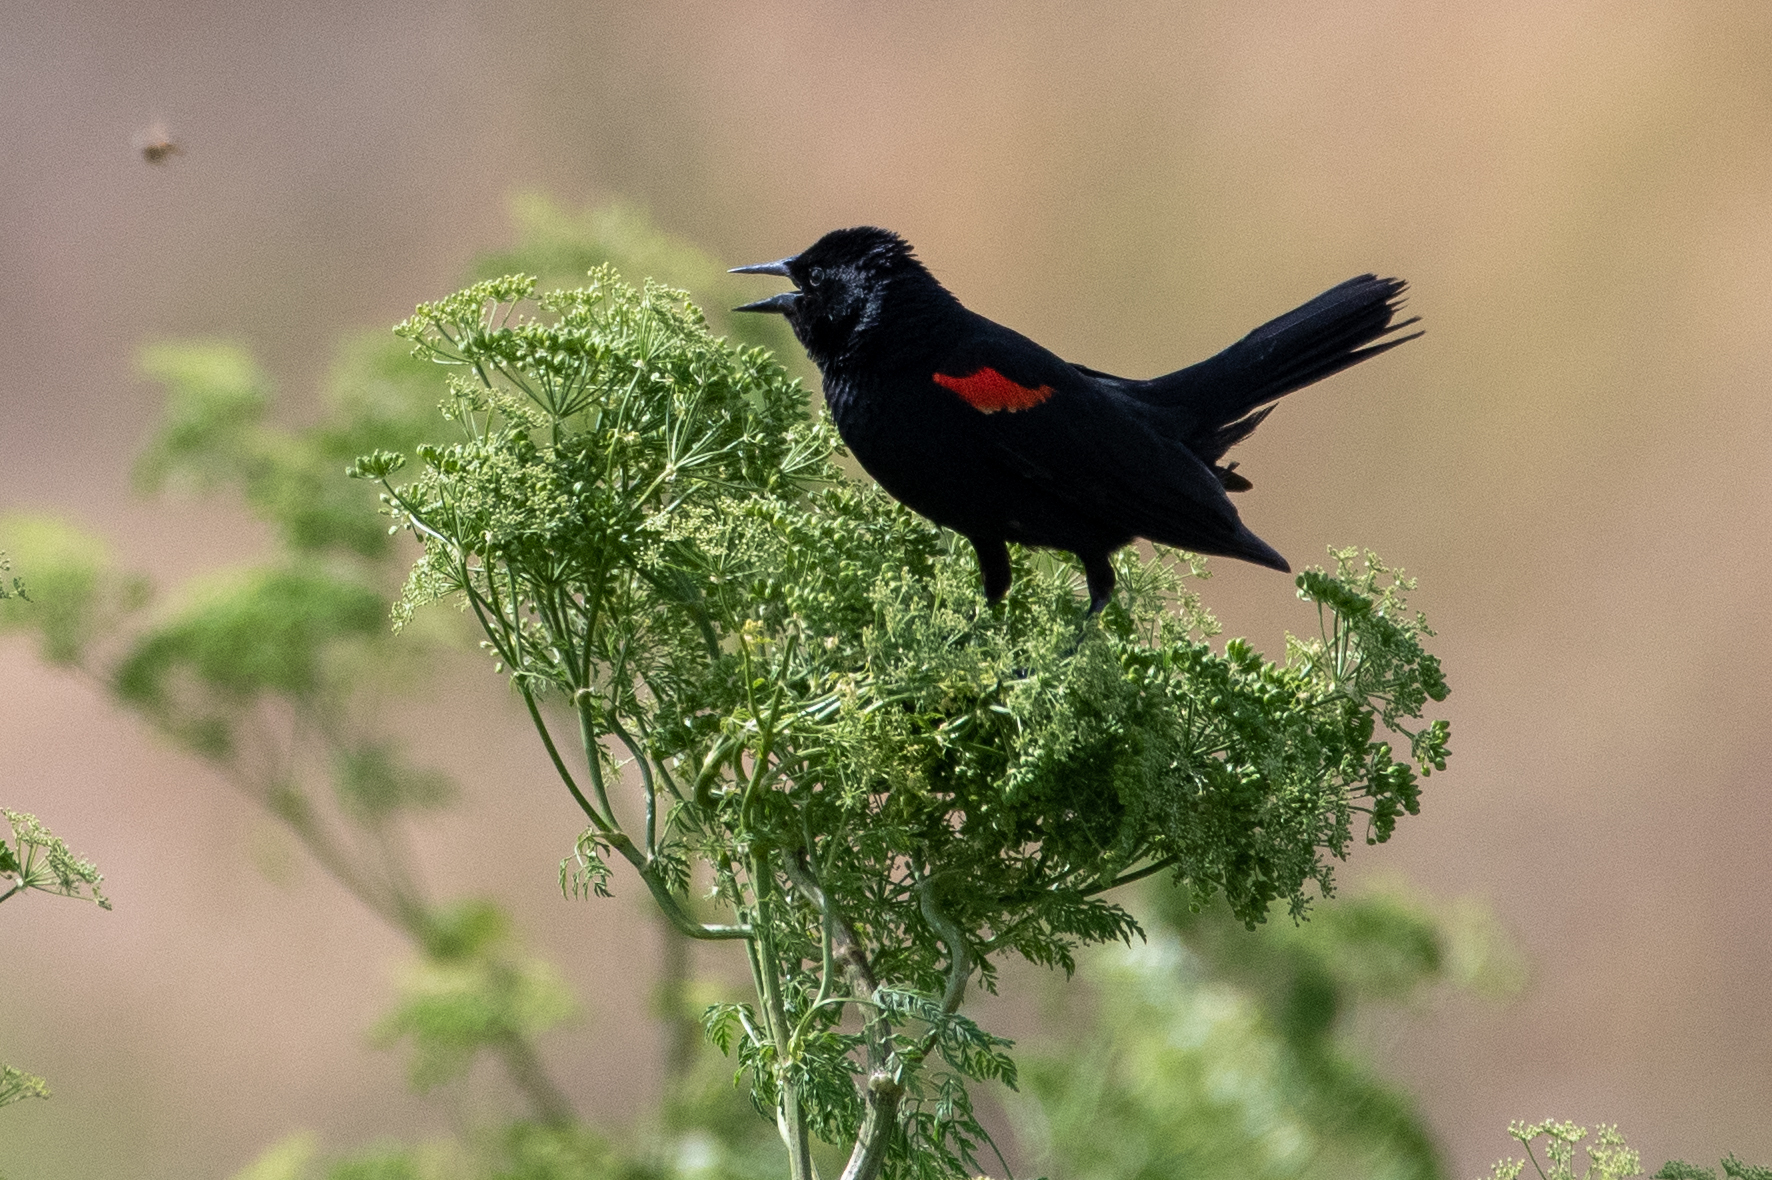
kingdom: Animalia
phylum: Chordata
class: Aves
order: Passeriformes
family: Icteridae
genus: Agelaius
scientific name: Agelaius phoeniceus
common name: Red-winged blackbird
